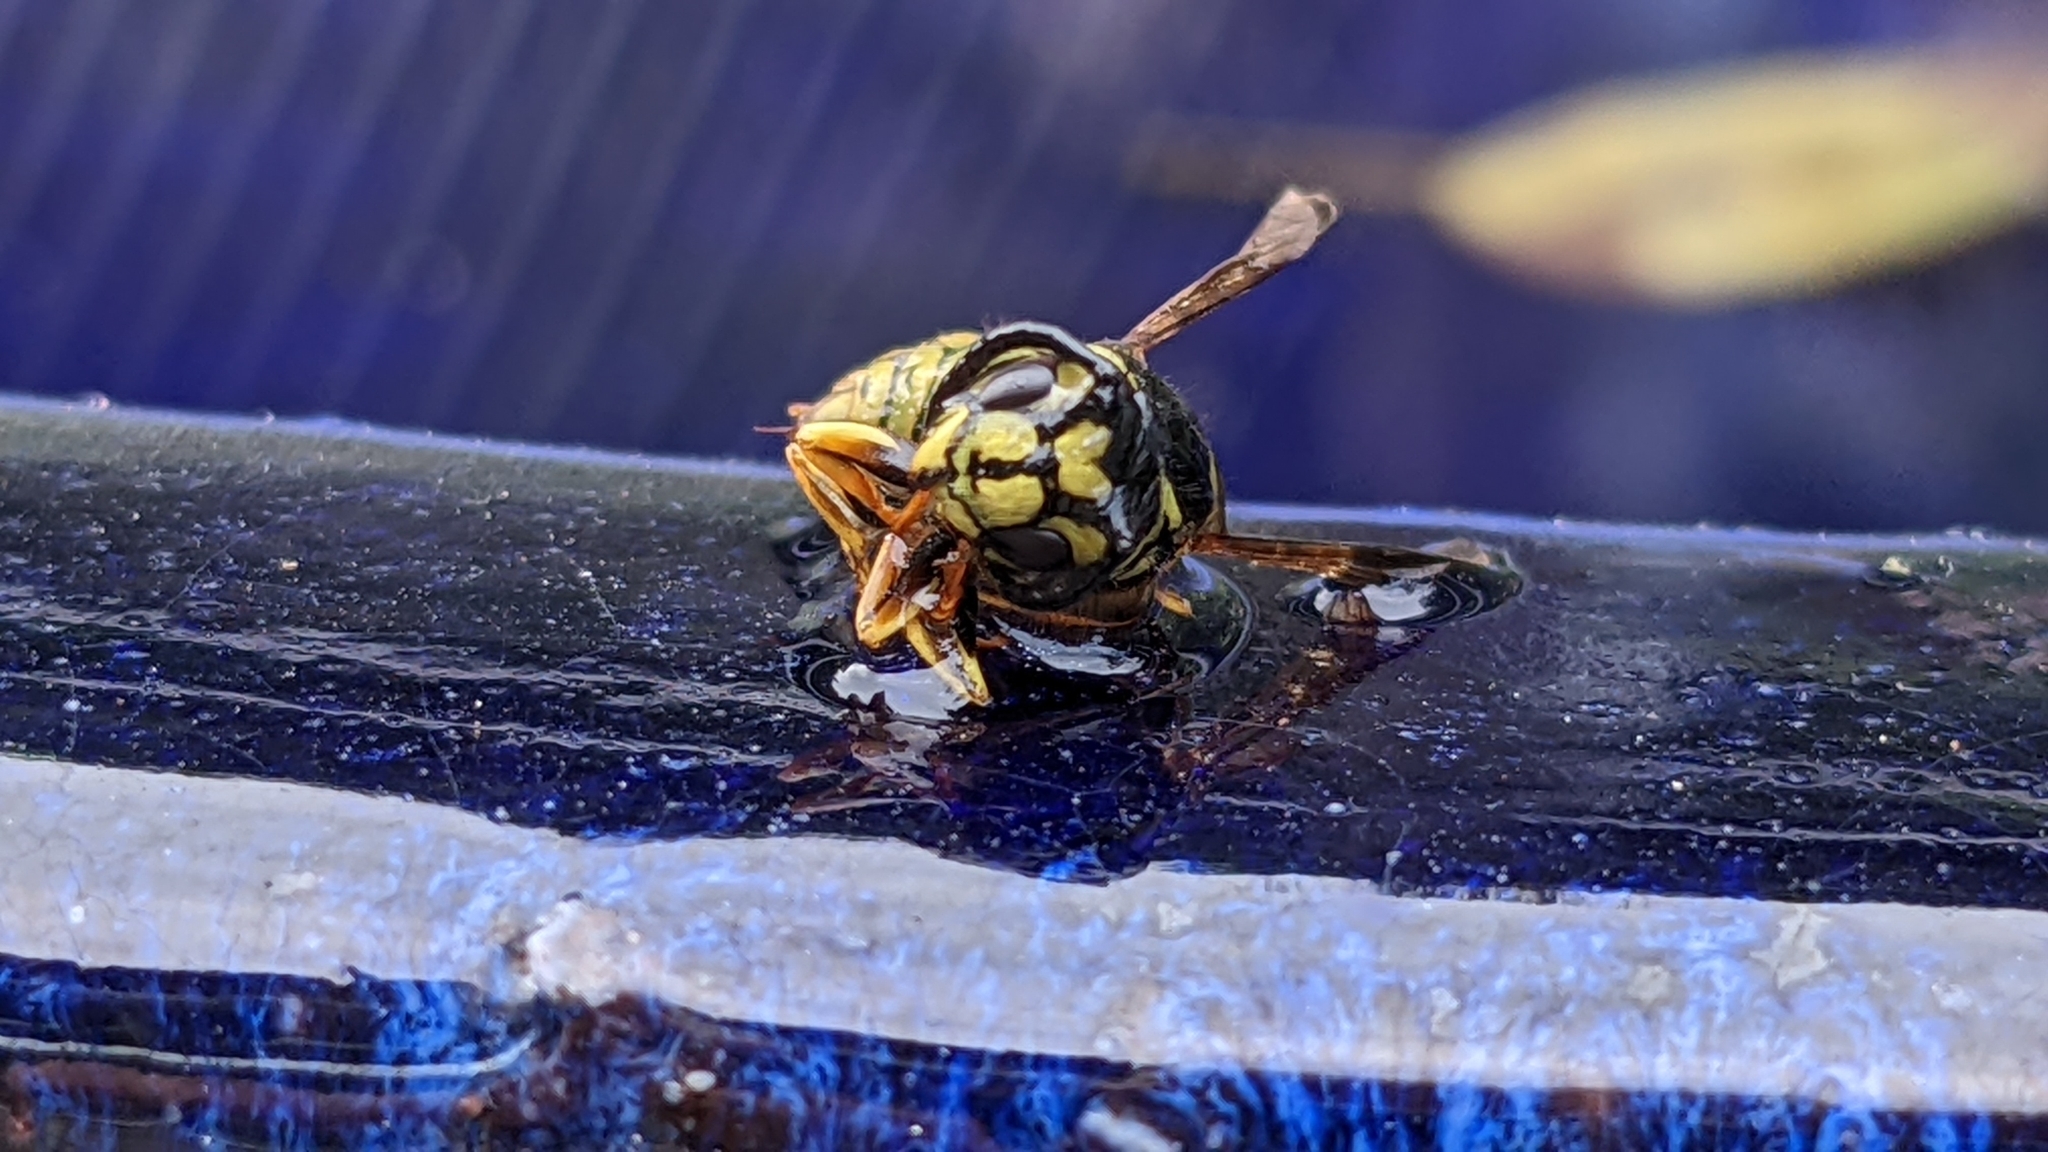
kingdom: Animalia
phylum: Arthropoda
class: Insecta
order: Hymenoptera
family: Vespidae
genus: Vespula
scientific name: Vespula vulgaris
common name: Common wasp
